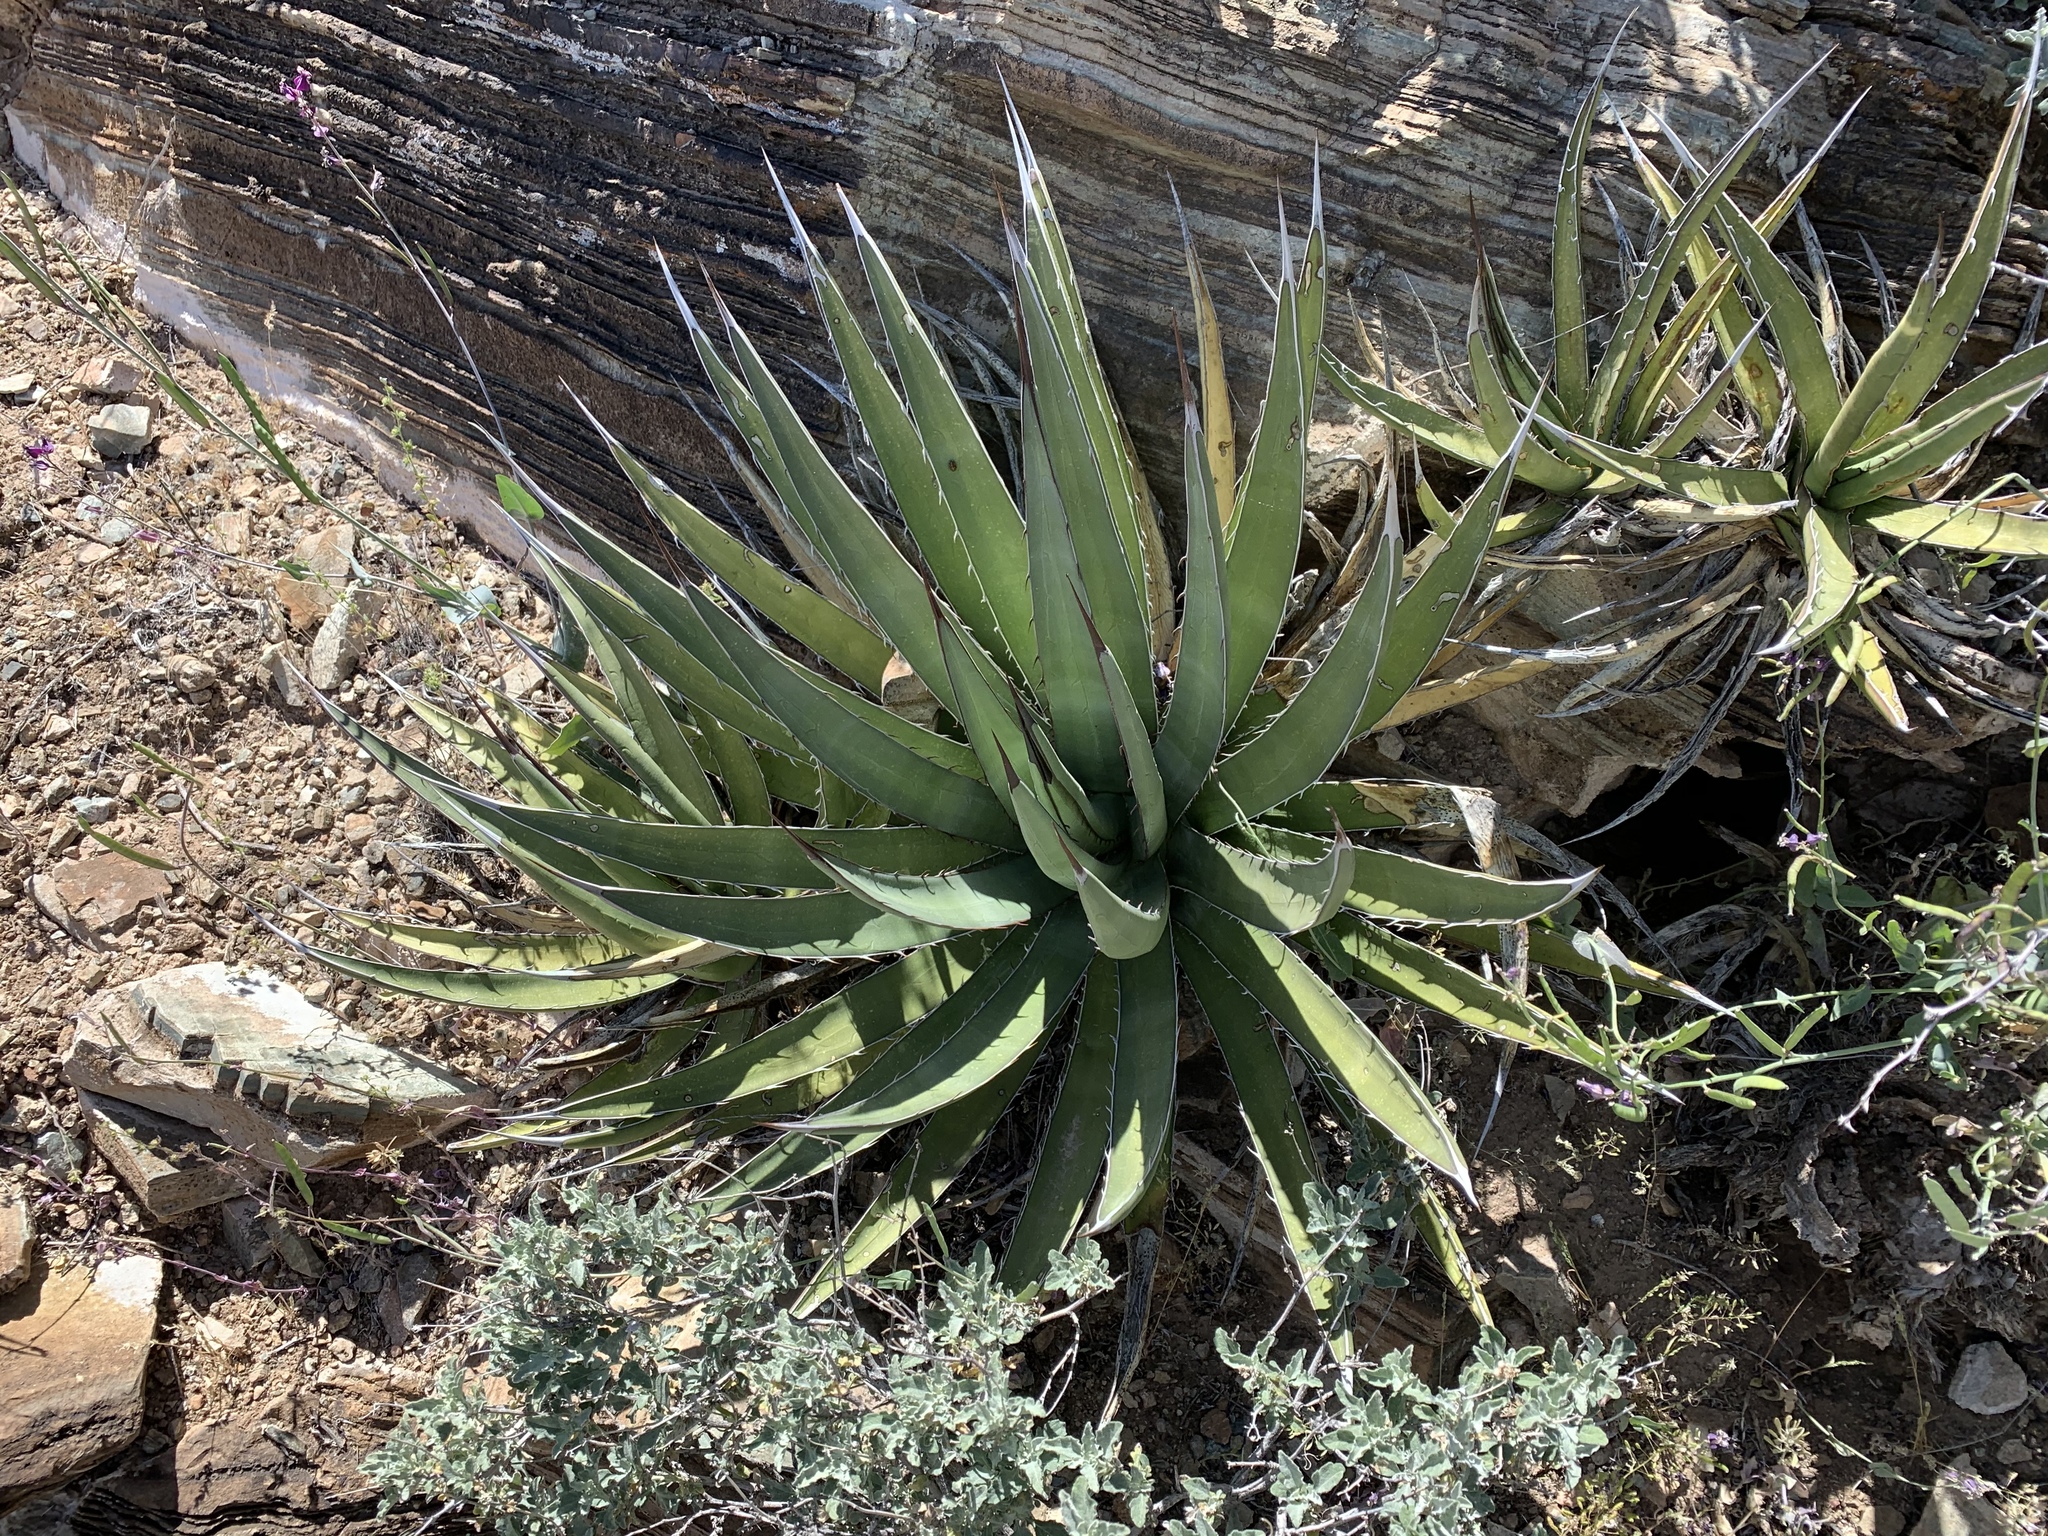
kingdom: Plantae
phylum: Tracheophyta
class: Liliopsida
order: Asparagales
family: Asparagaceae
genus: Agave
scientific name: Agave lechuguilla
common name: Lecheguilla agave
